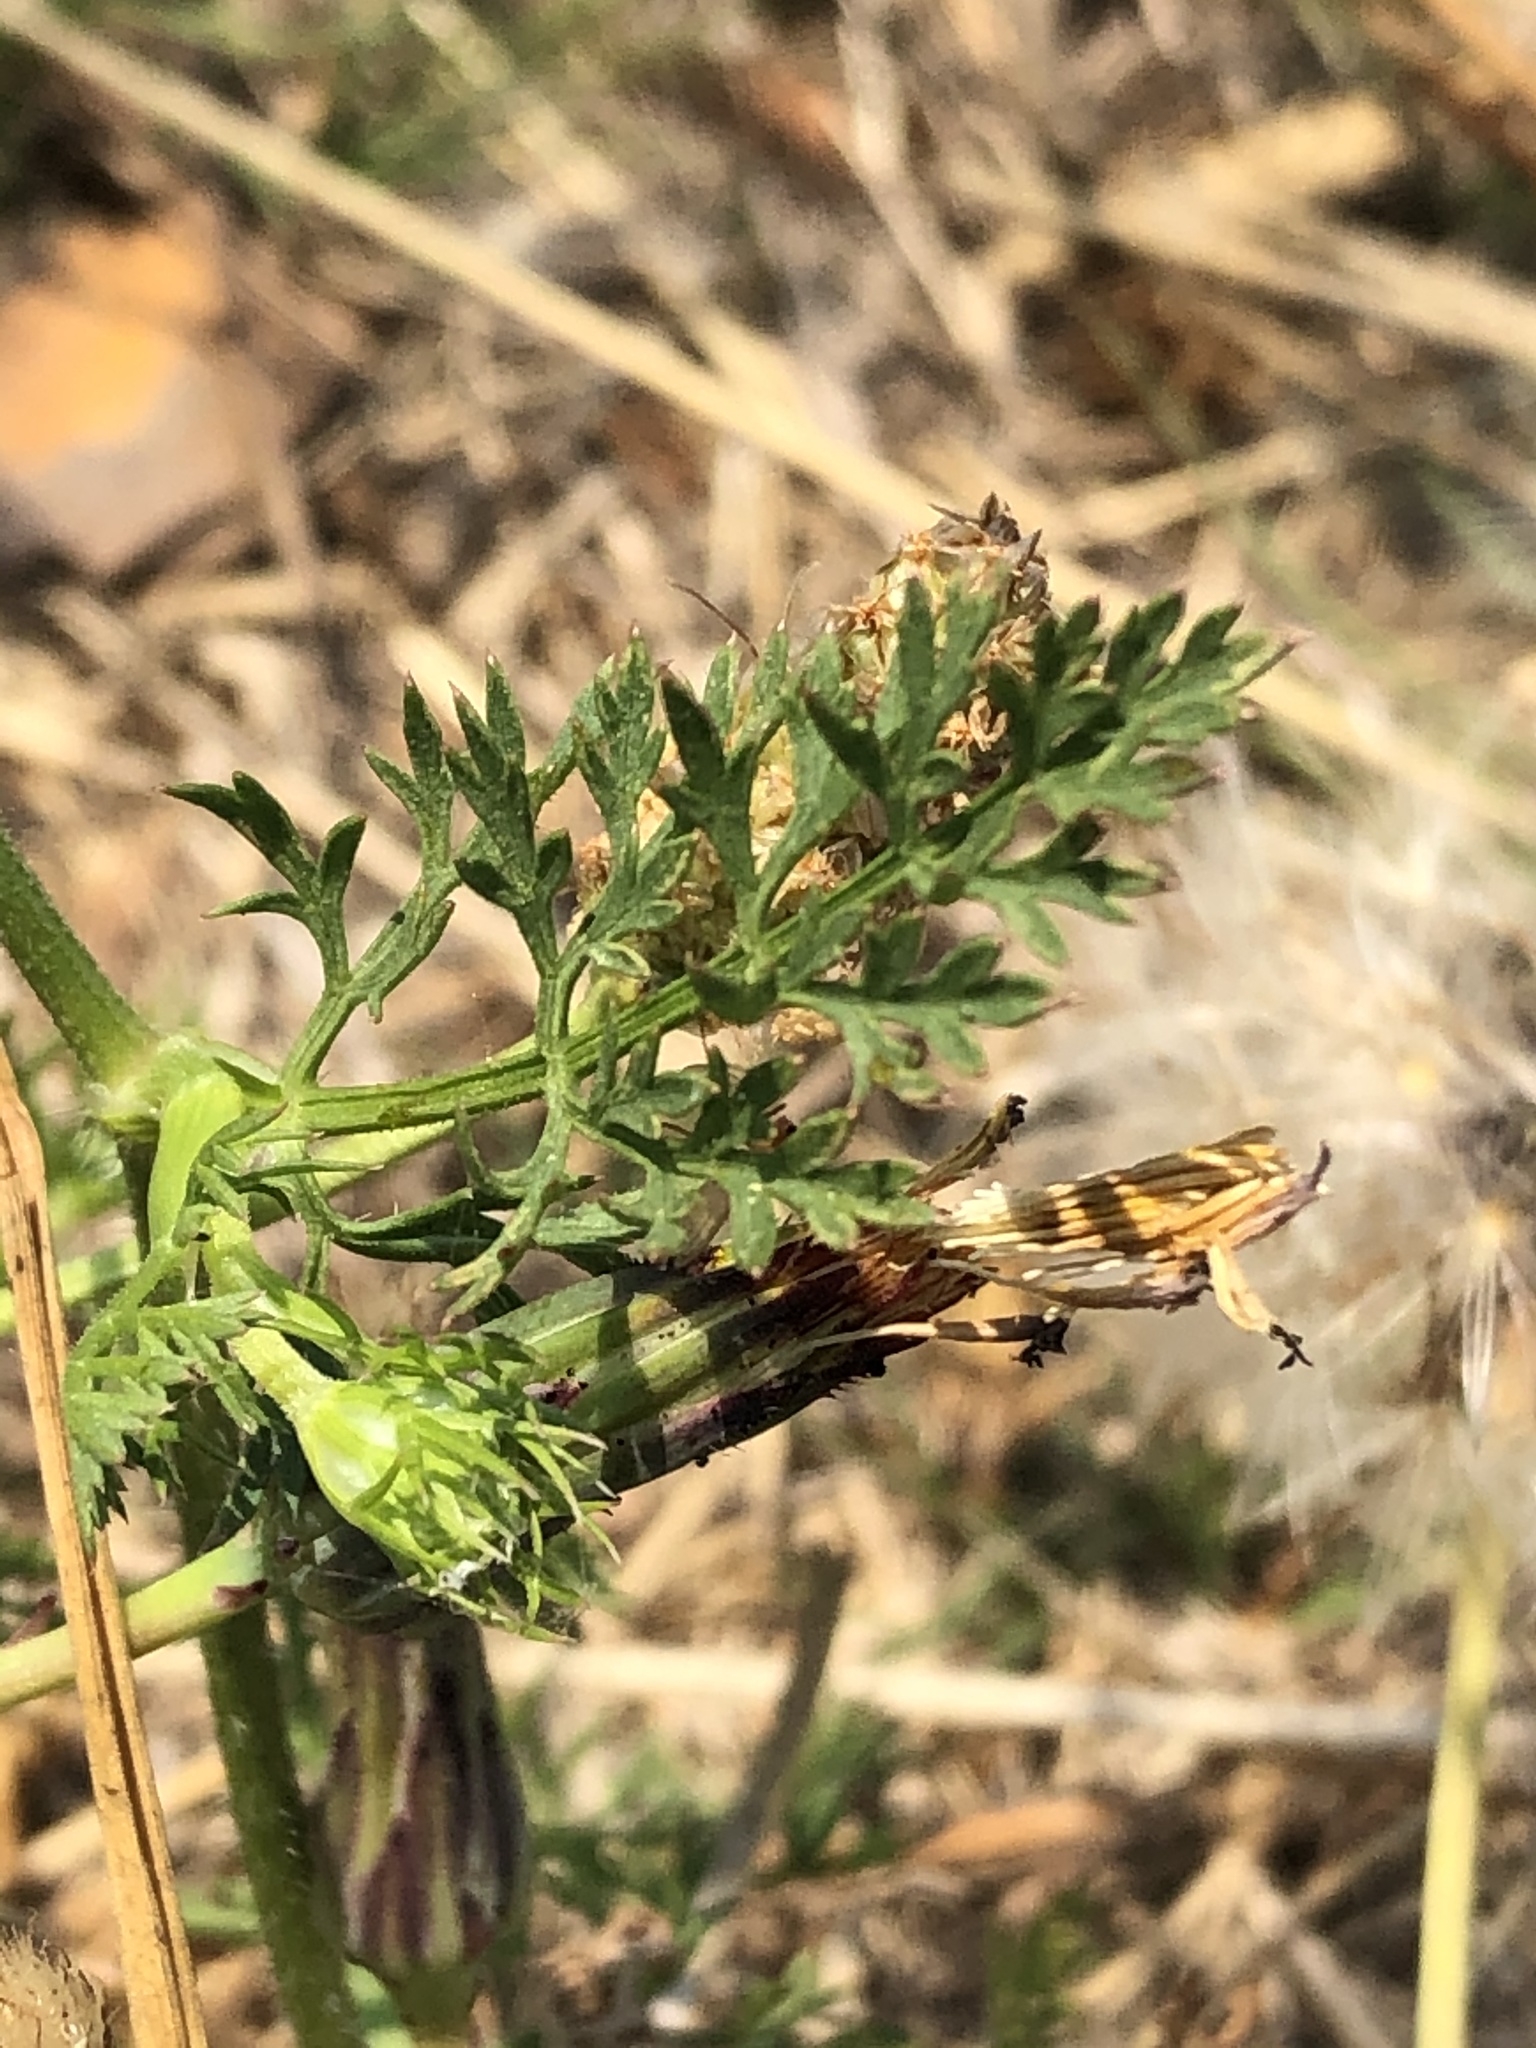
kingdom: Plantae
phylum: Tracheophyta
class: Magnoliopsida
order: Apiales
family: Apiaceae
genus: Daucus
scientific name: Daucus carota
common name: Wild carrot
